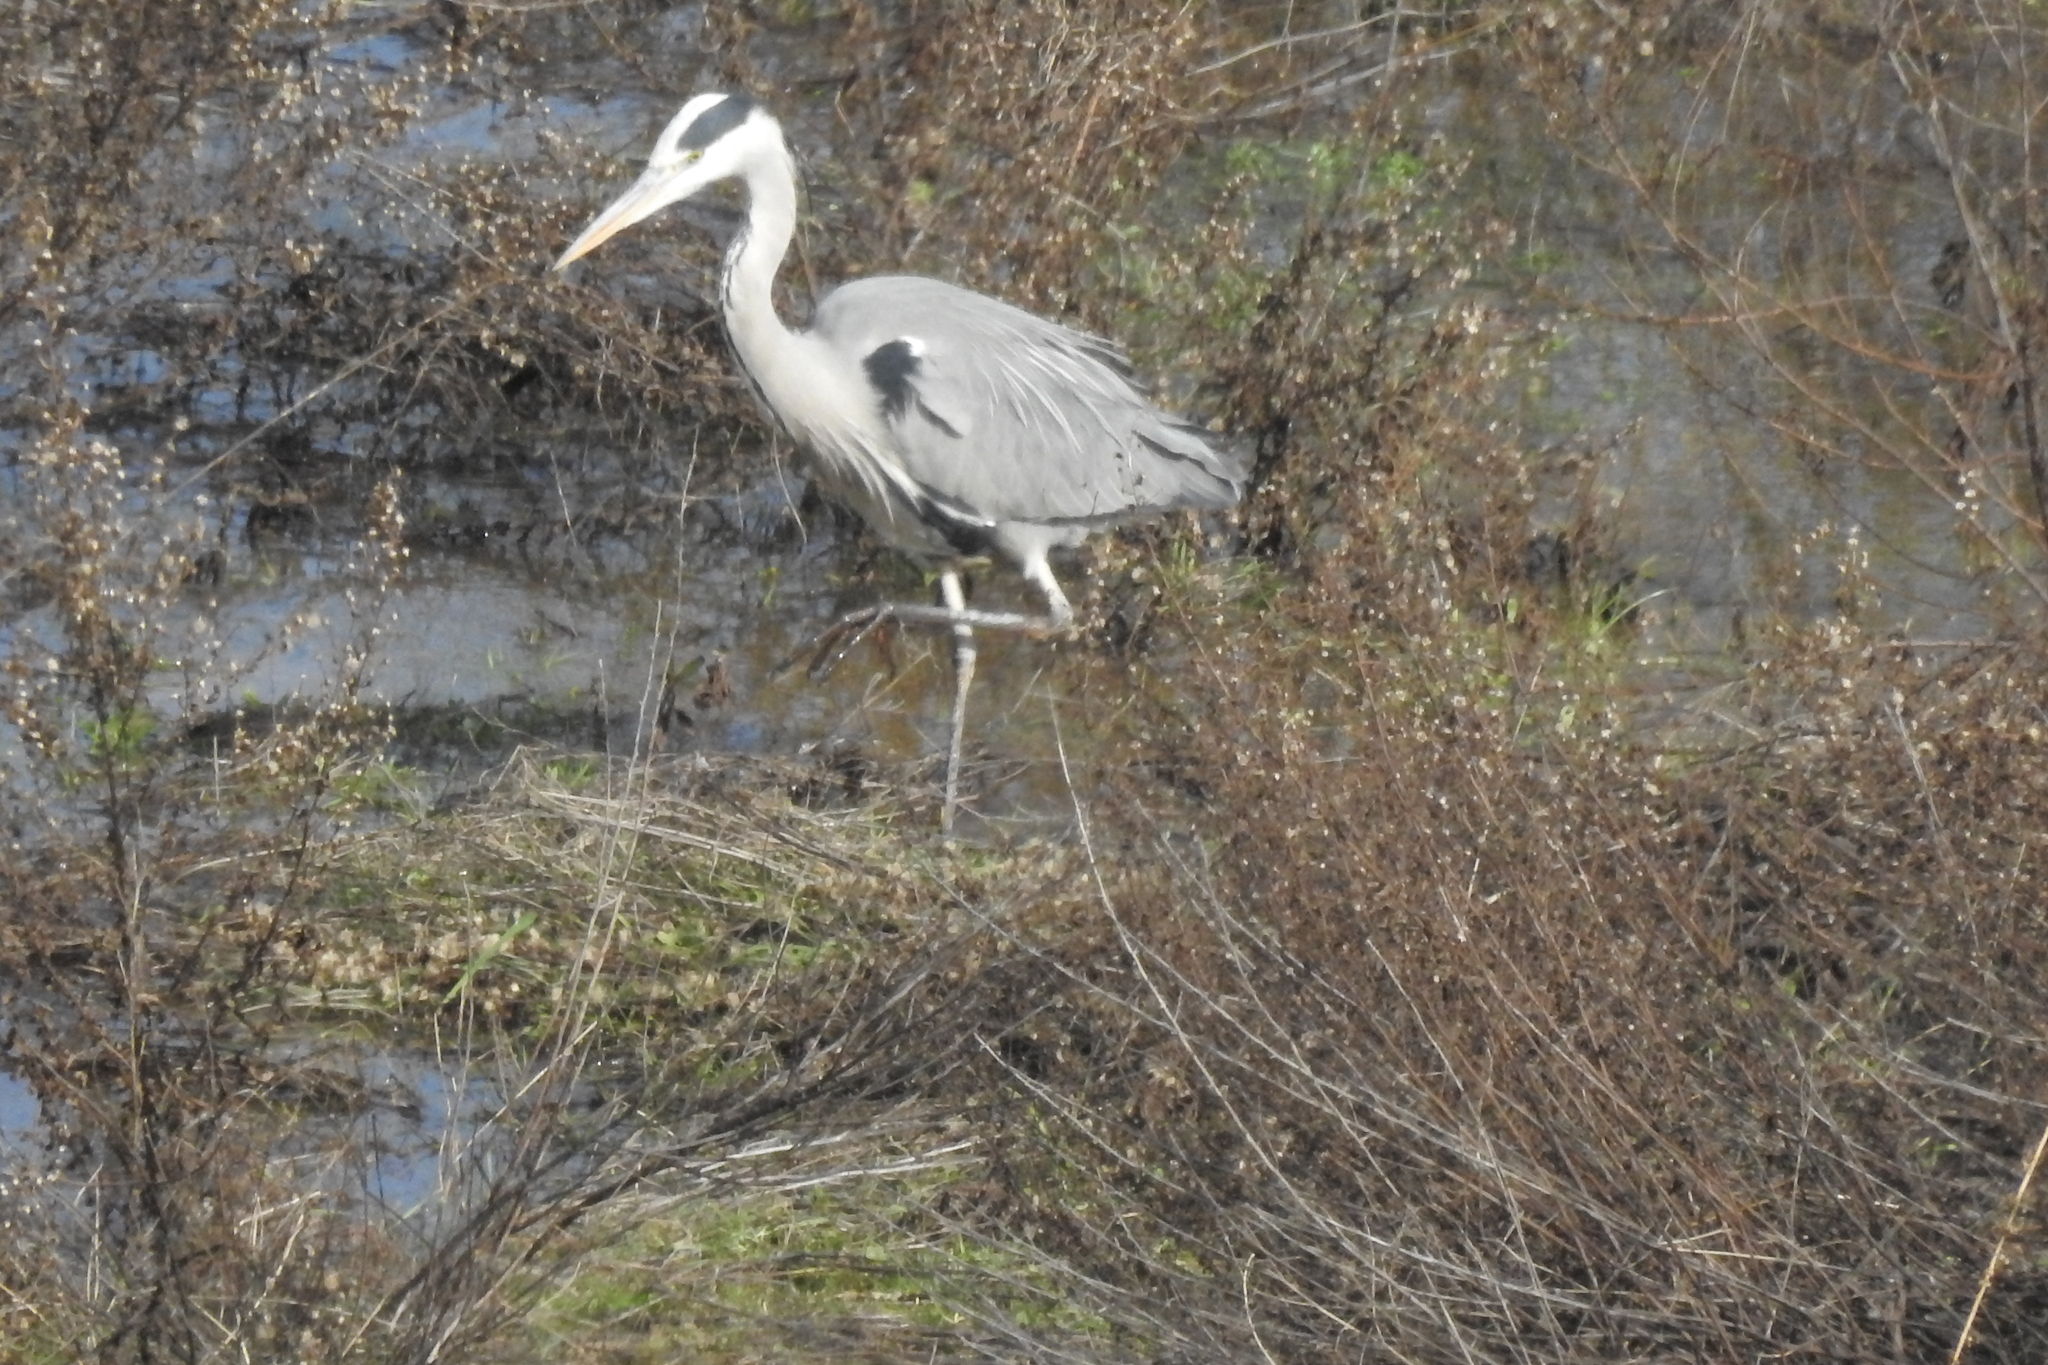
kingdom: Animalia
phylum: Chordata
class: Aves
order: Pelecaniformes
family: Ardeidae
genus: Ardea
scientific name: Ardea cinerea
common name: Grey heron
